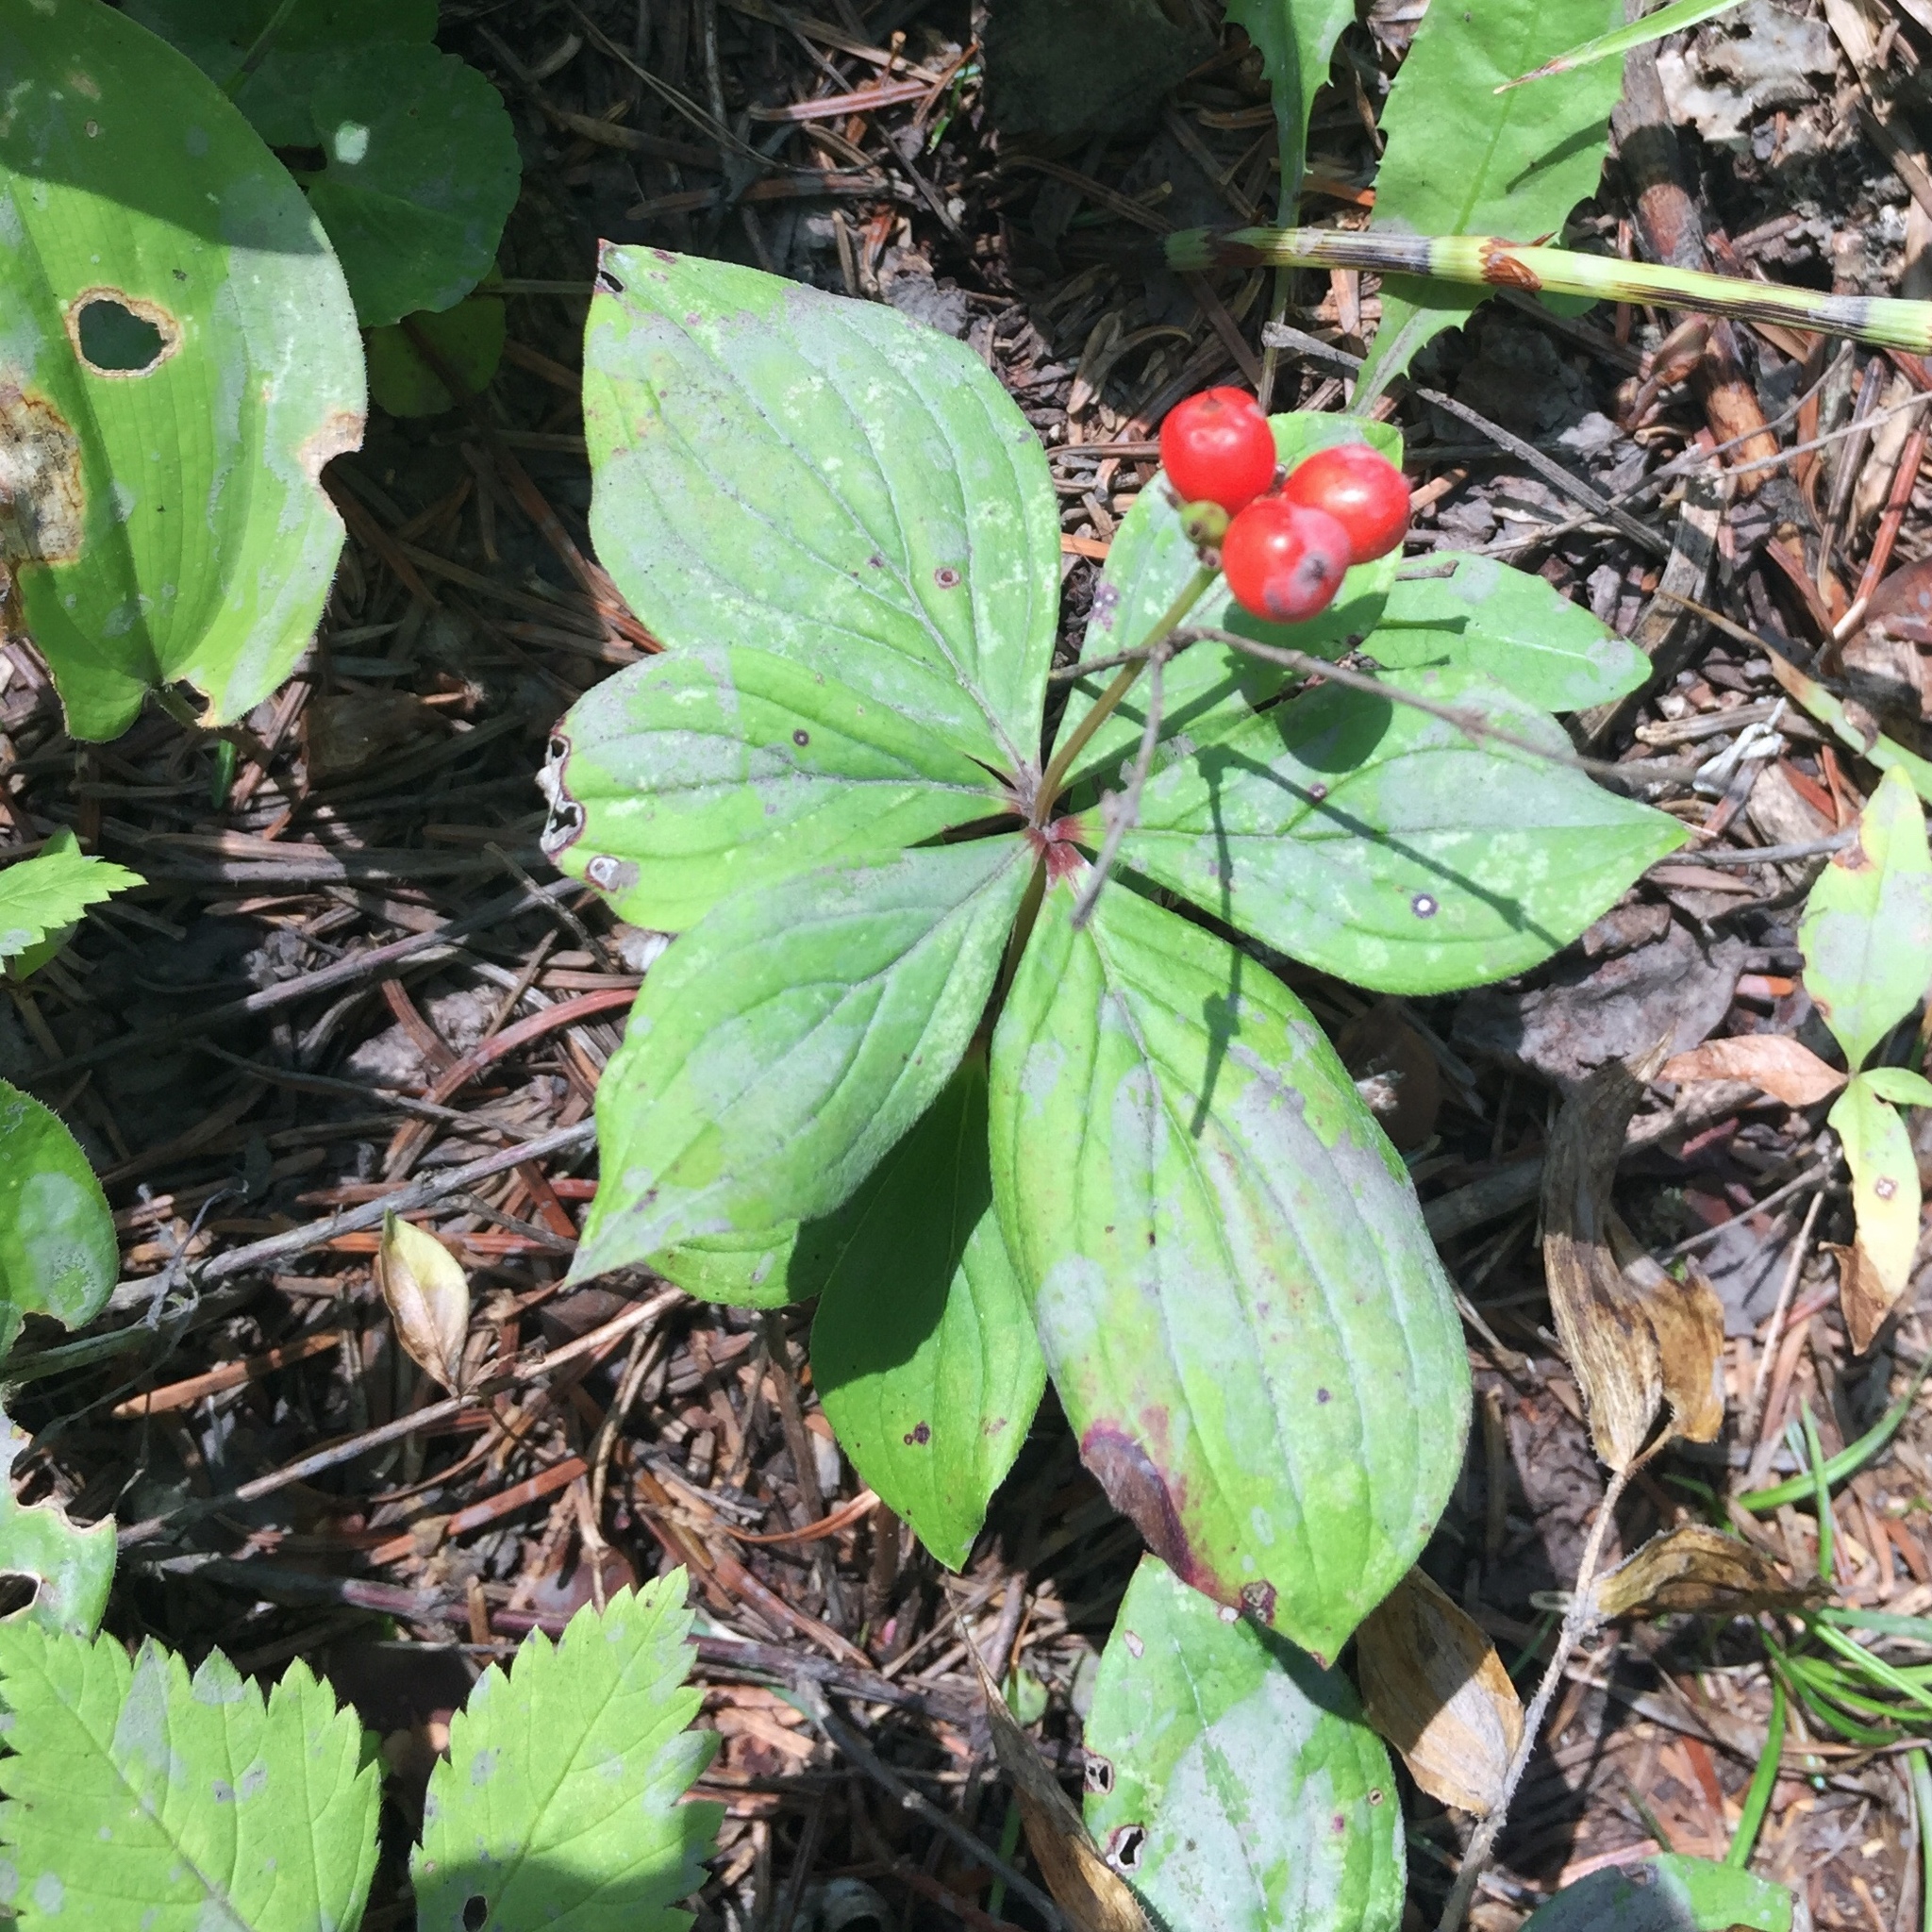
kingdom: Plantae
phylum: Tracheophyta
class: Magnoliopsida
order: Cornales
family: Cornaceae
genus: Cornus
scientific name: Cornus canadensis
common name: Creeping dogwood
